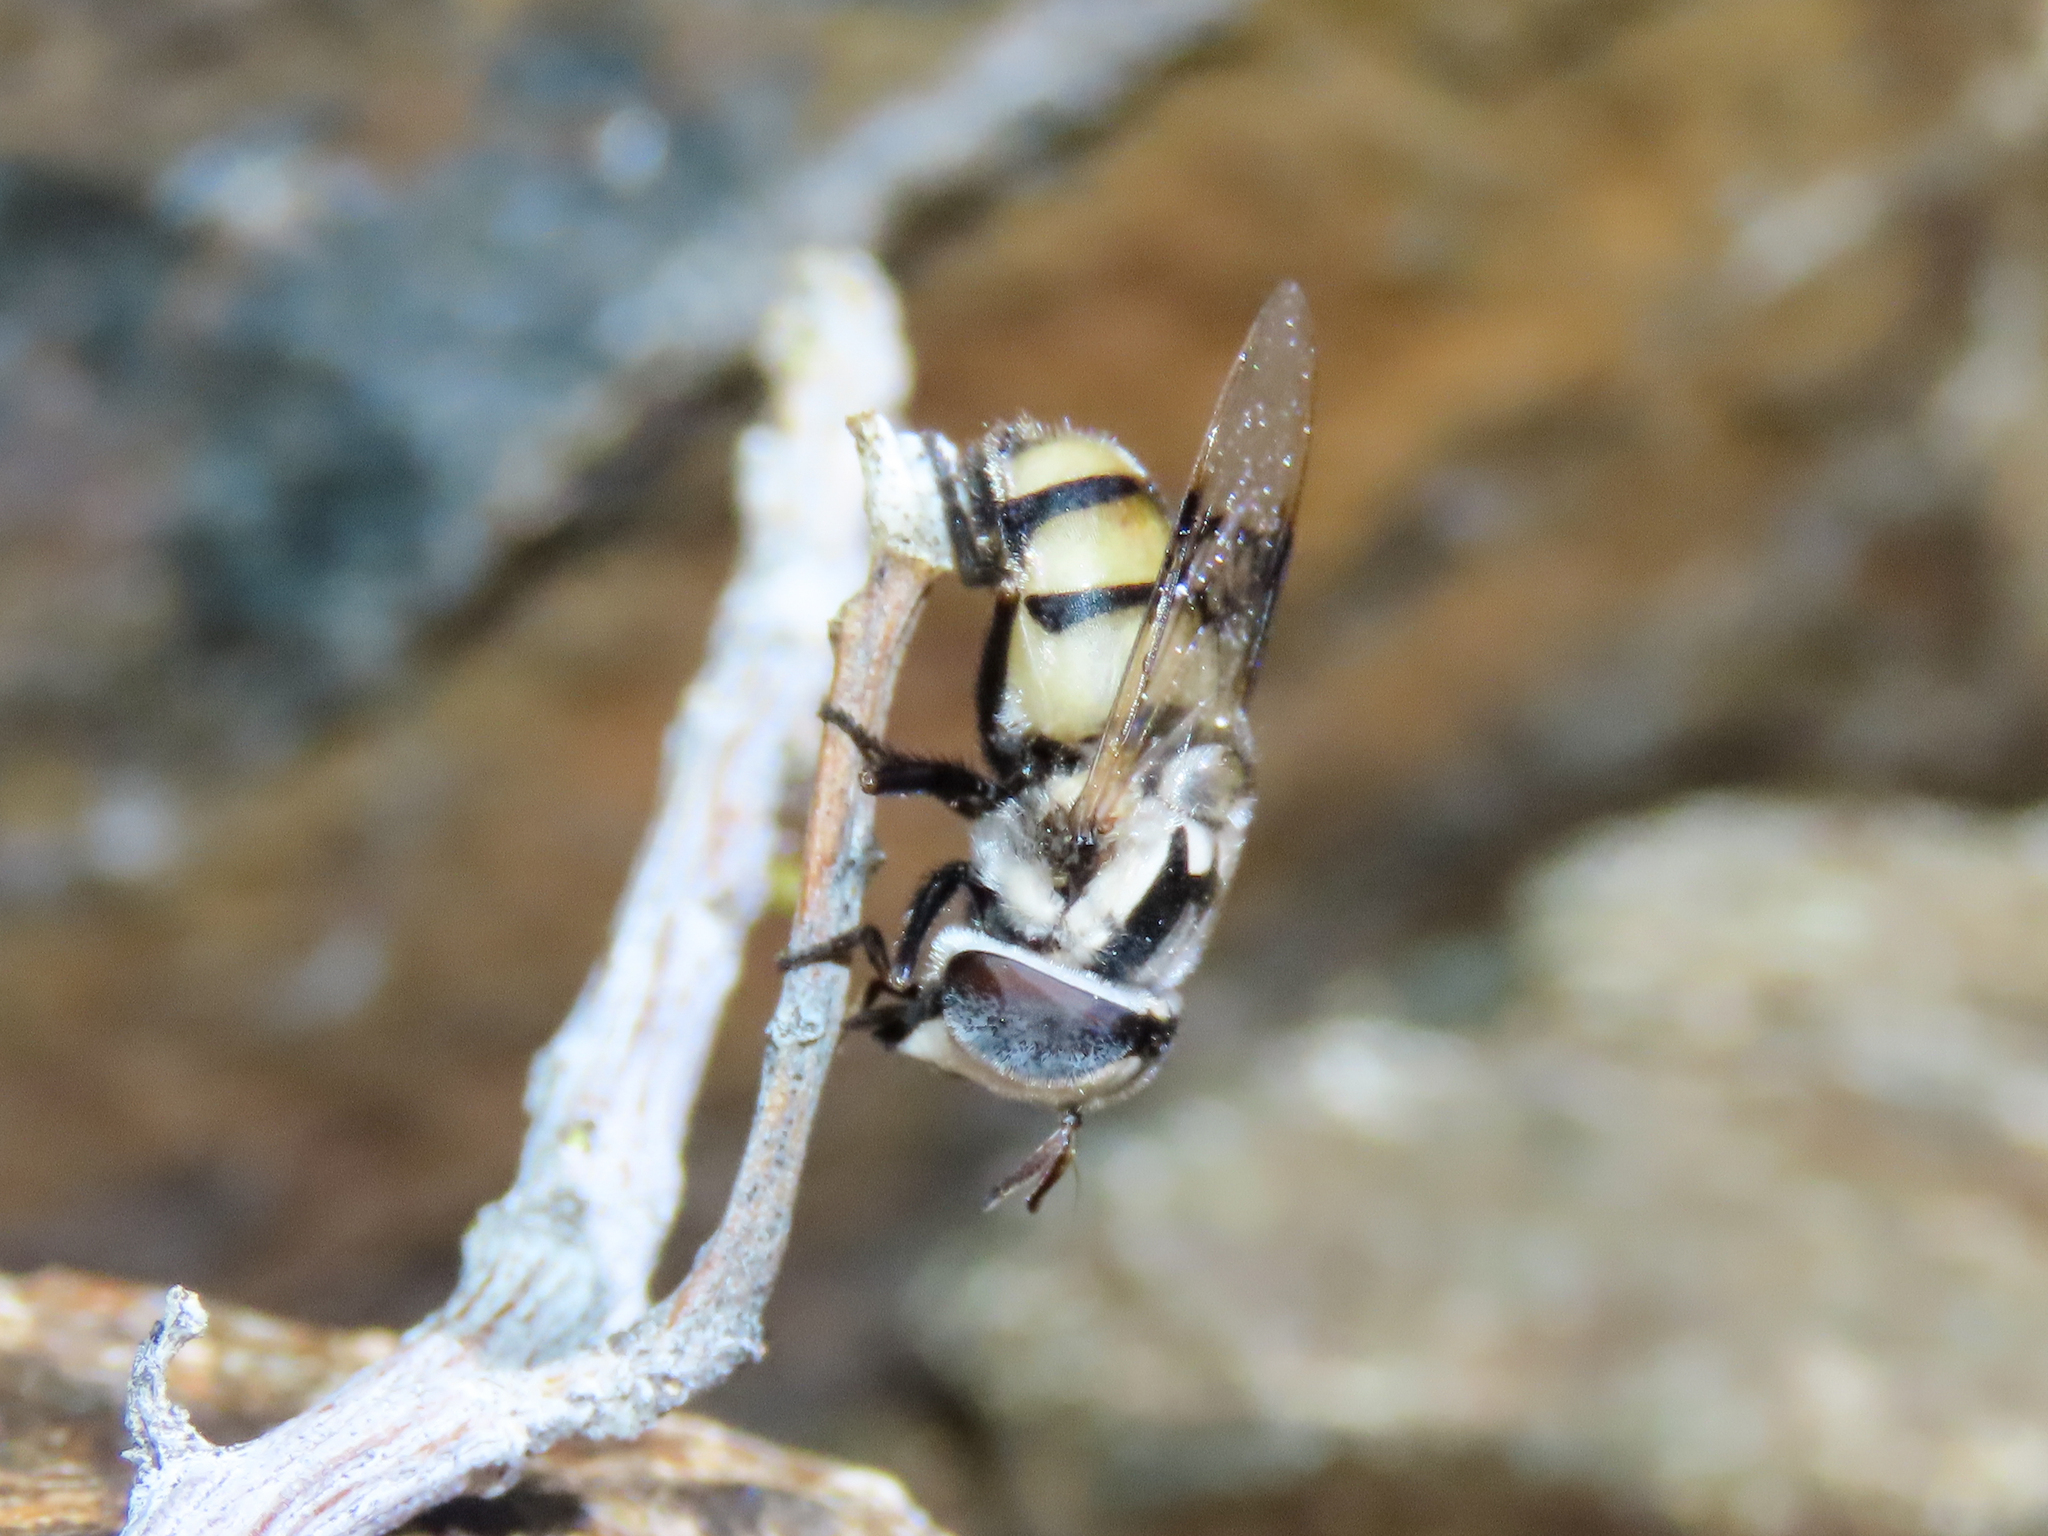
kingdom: Animalia
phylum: Arthropoda
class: Insecta
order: Diptera
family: Syrphidae
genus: Copestylum
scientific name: Copestylum fornax
